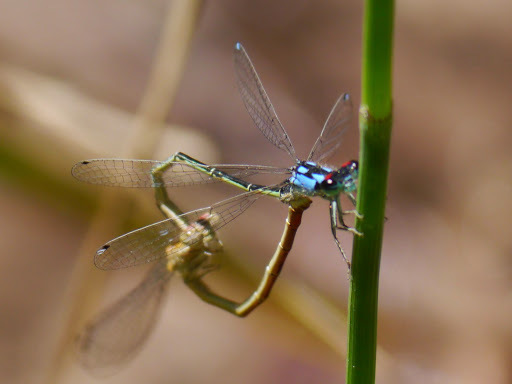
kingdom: Animalia
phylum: Arthropoda
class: Insecta
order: Odonata
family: Coenagrionidae
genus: Hesperagrion
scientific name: Hesperagrion heterodoxum
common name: Painted damsel
